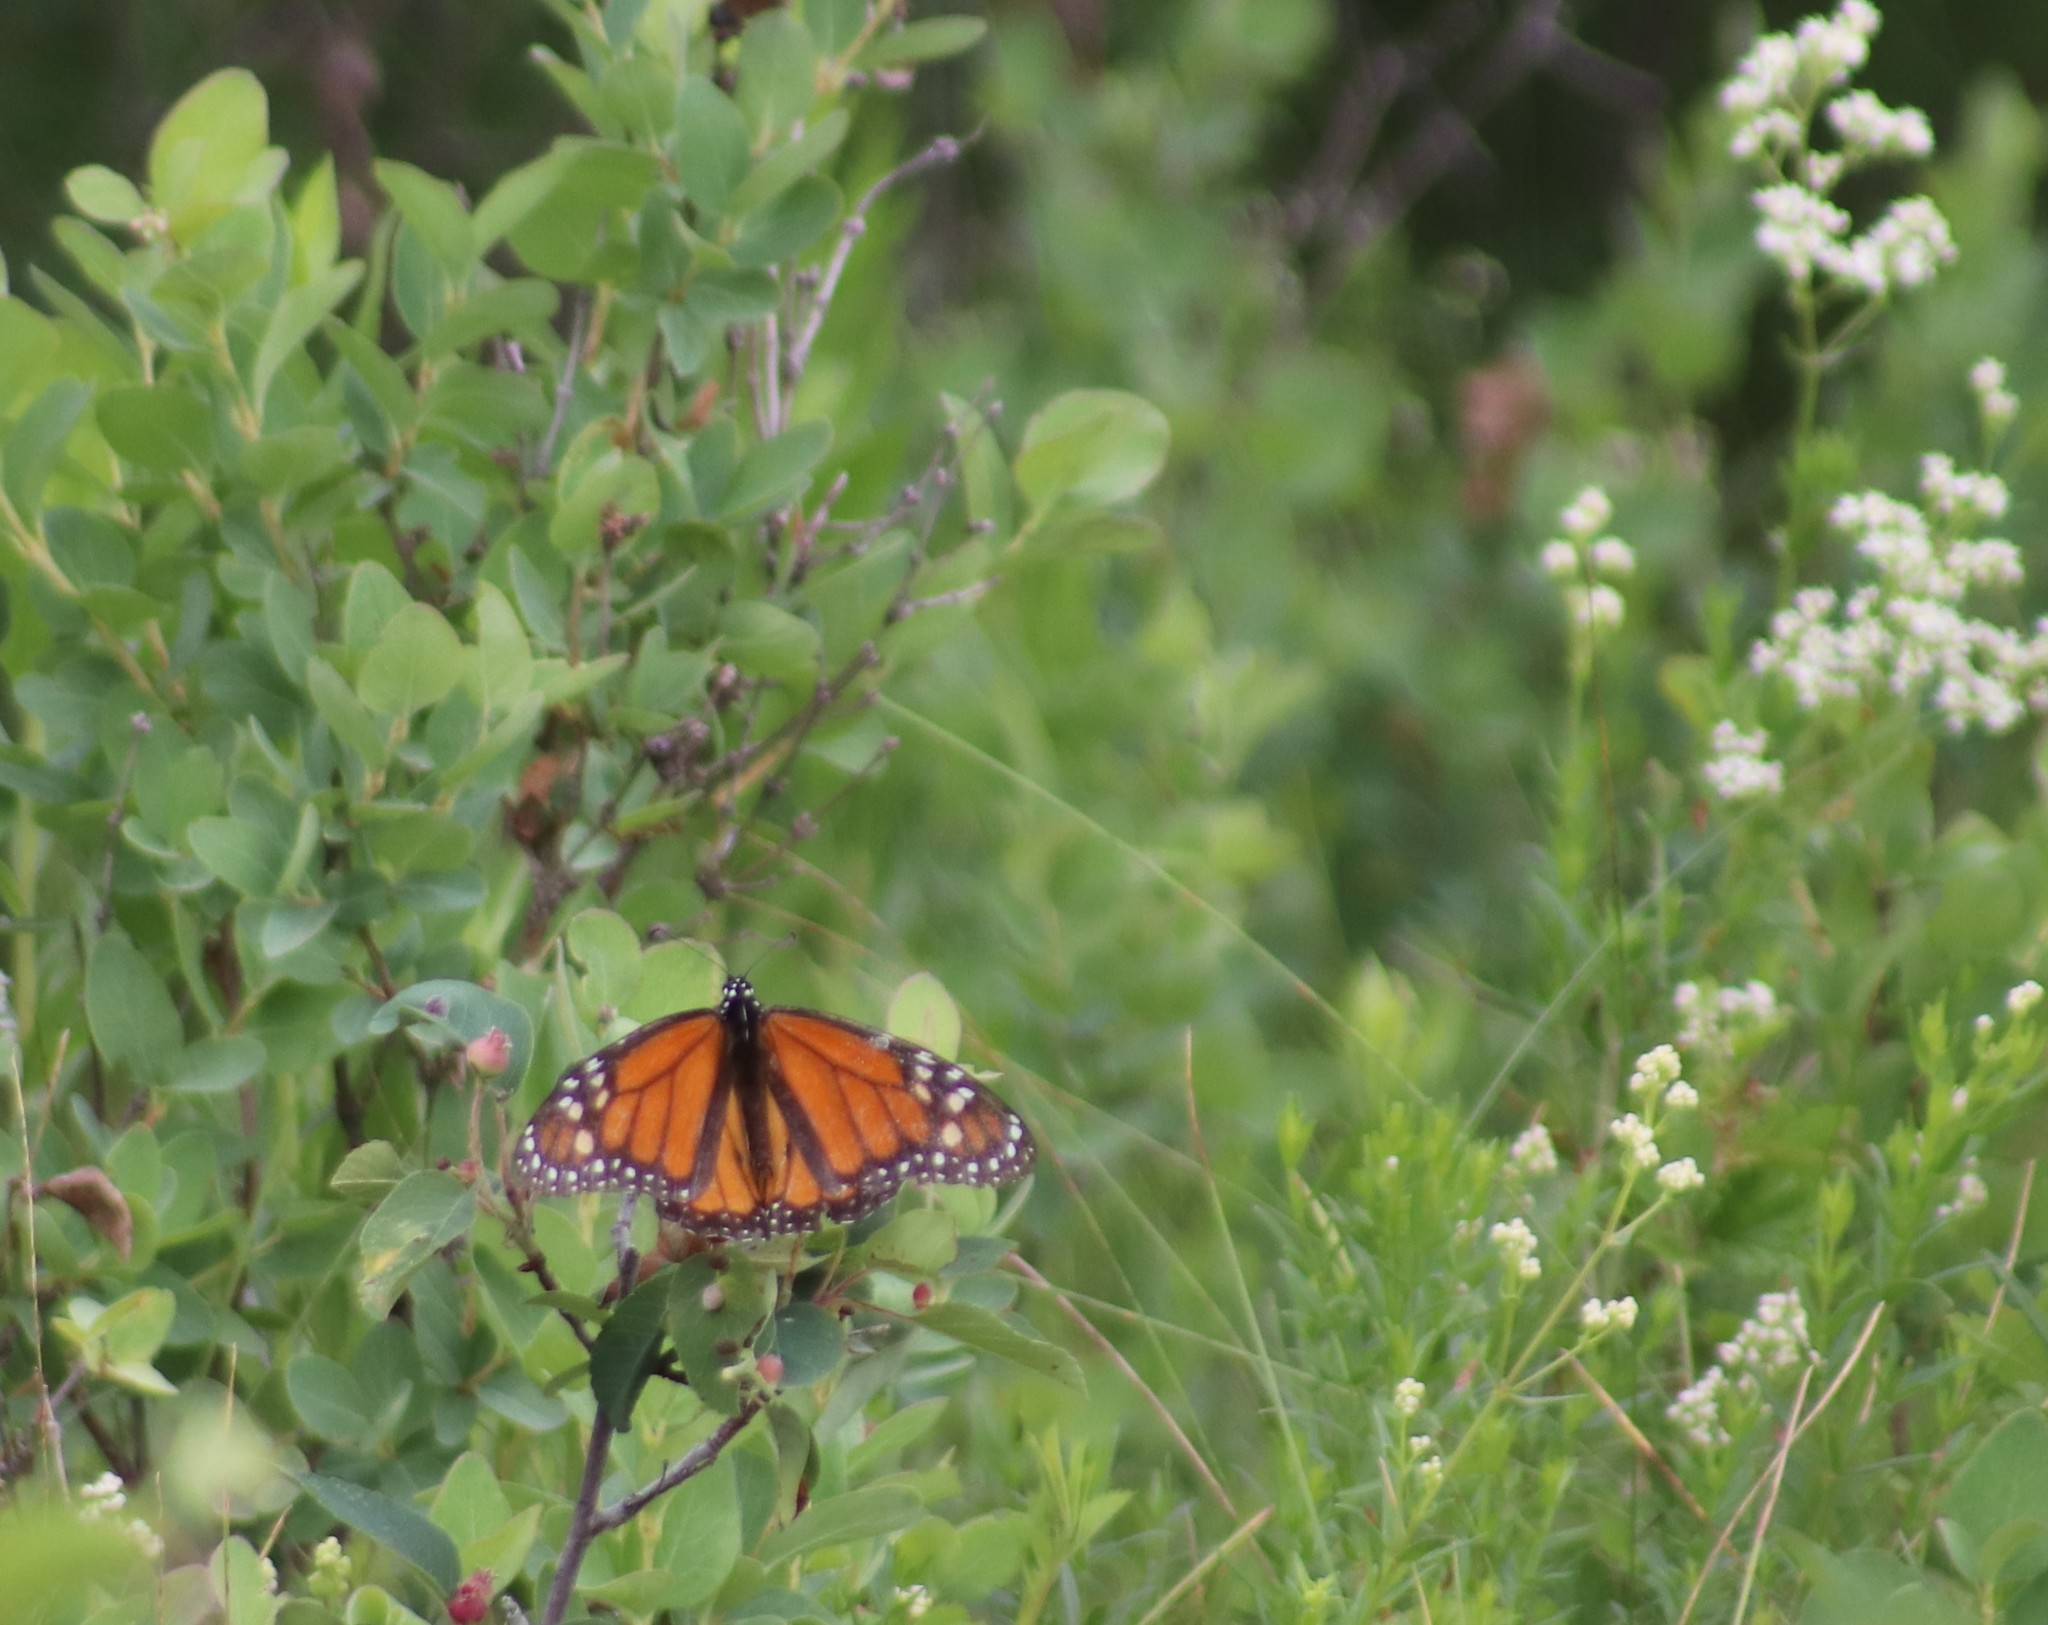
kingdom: Animalia
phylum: Arthropoda
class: Insecta
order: Lepidoptera
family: Nymphalidae
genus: Danaus
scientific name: Danaus plexippus
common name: Monarch
